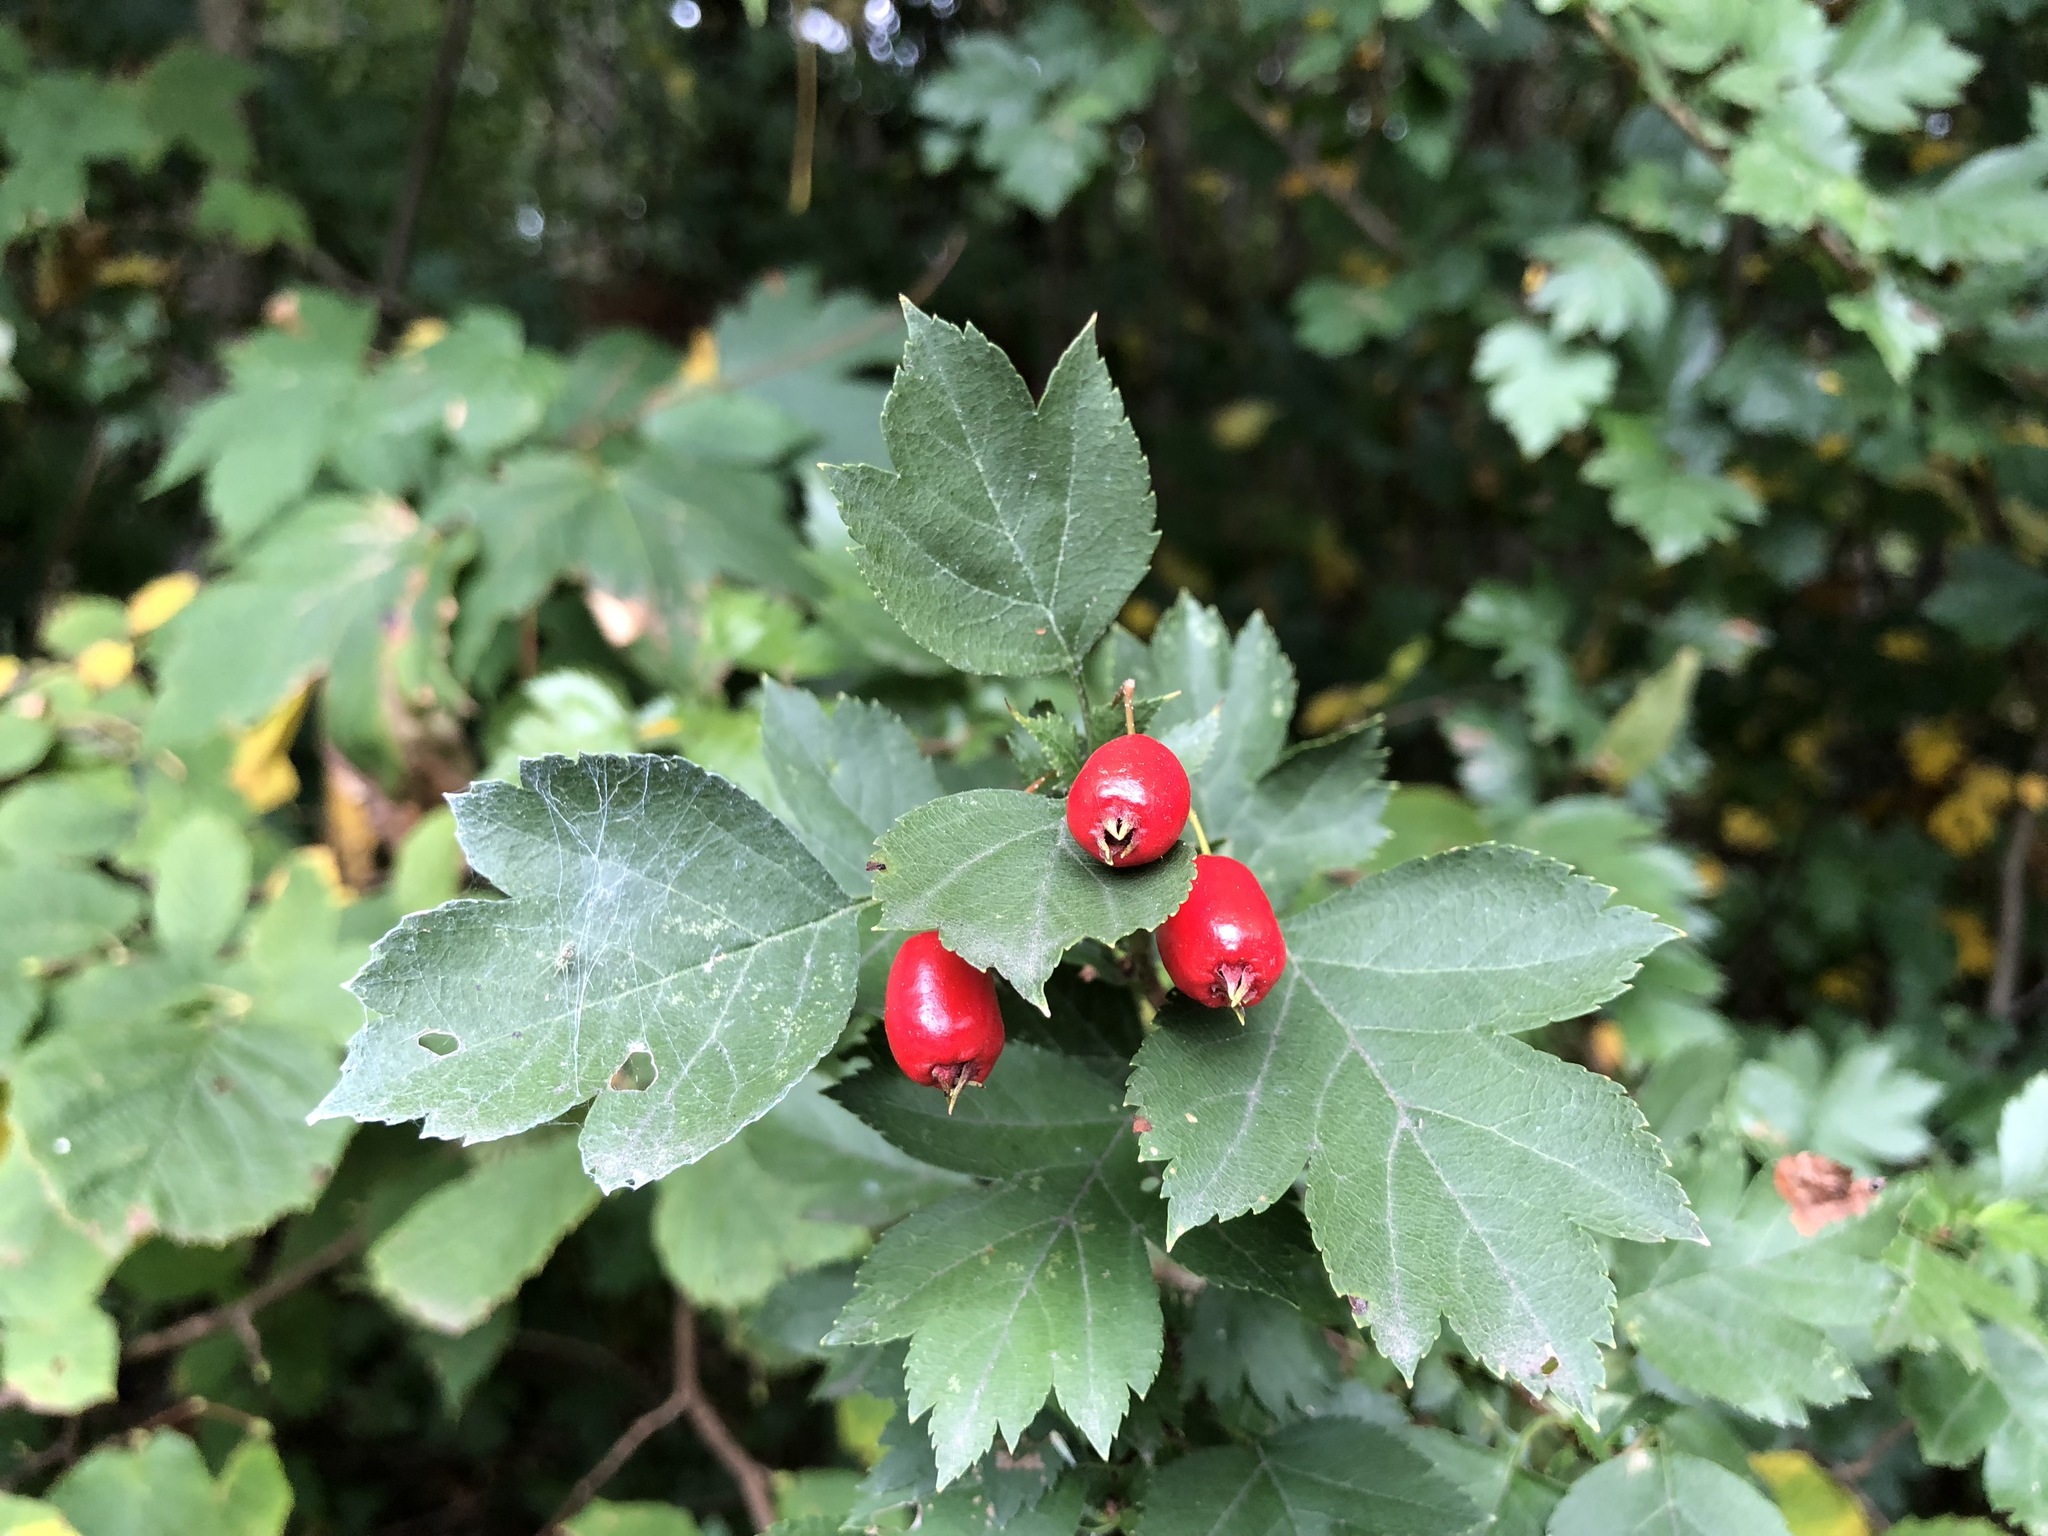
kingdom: Plantae
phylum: Tracheophyta
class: Magnoliopsida
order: Rosales
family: Rosaceae
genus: Crataegus
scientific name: Crataegus rhipidophylla
